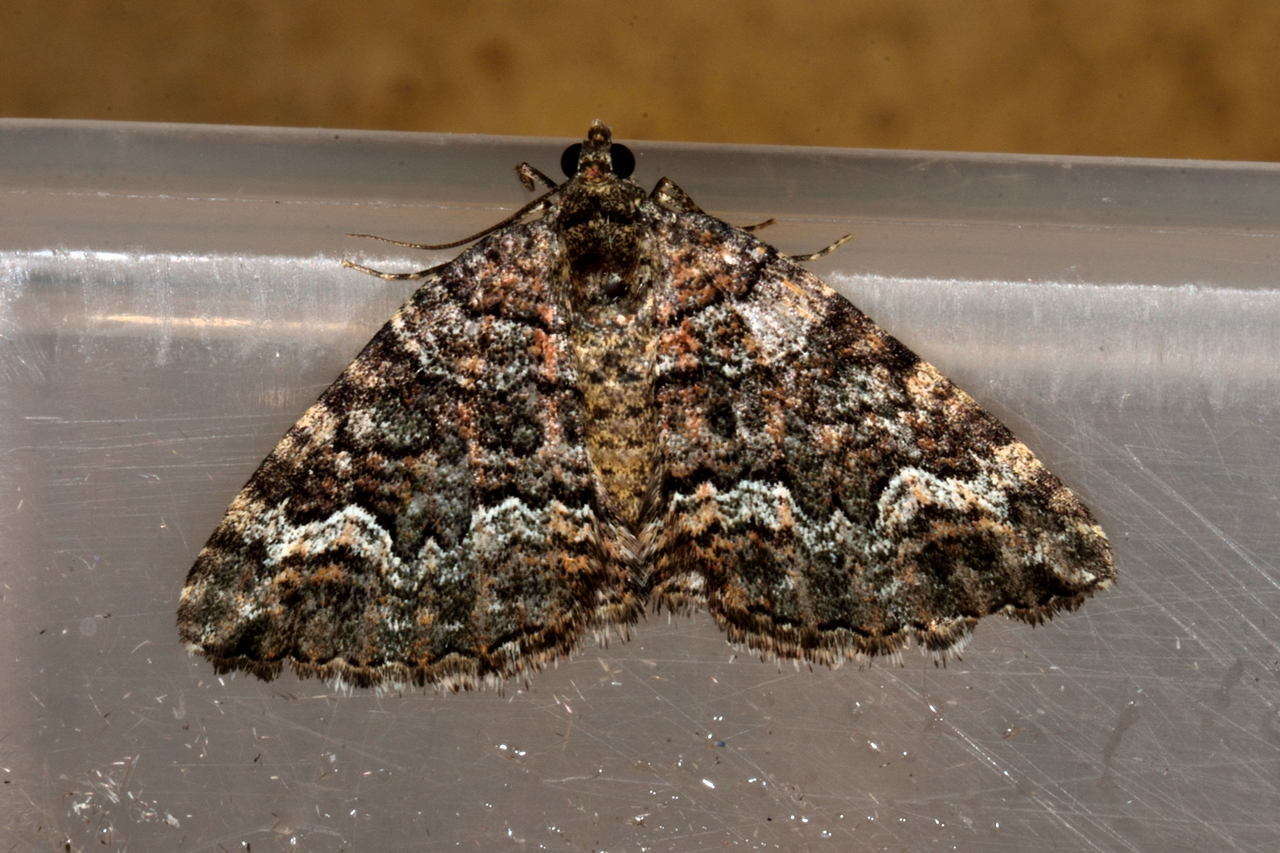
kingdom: Animalia
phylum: Arthropoda
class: Insecta
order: Lepidoptera
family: Geometridae
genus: Chrysolarentia
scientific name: Chrysolarentia imperviata
